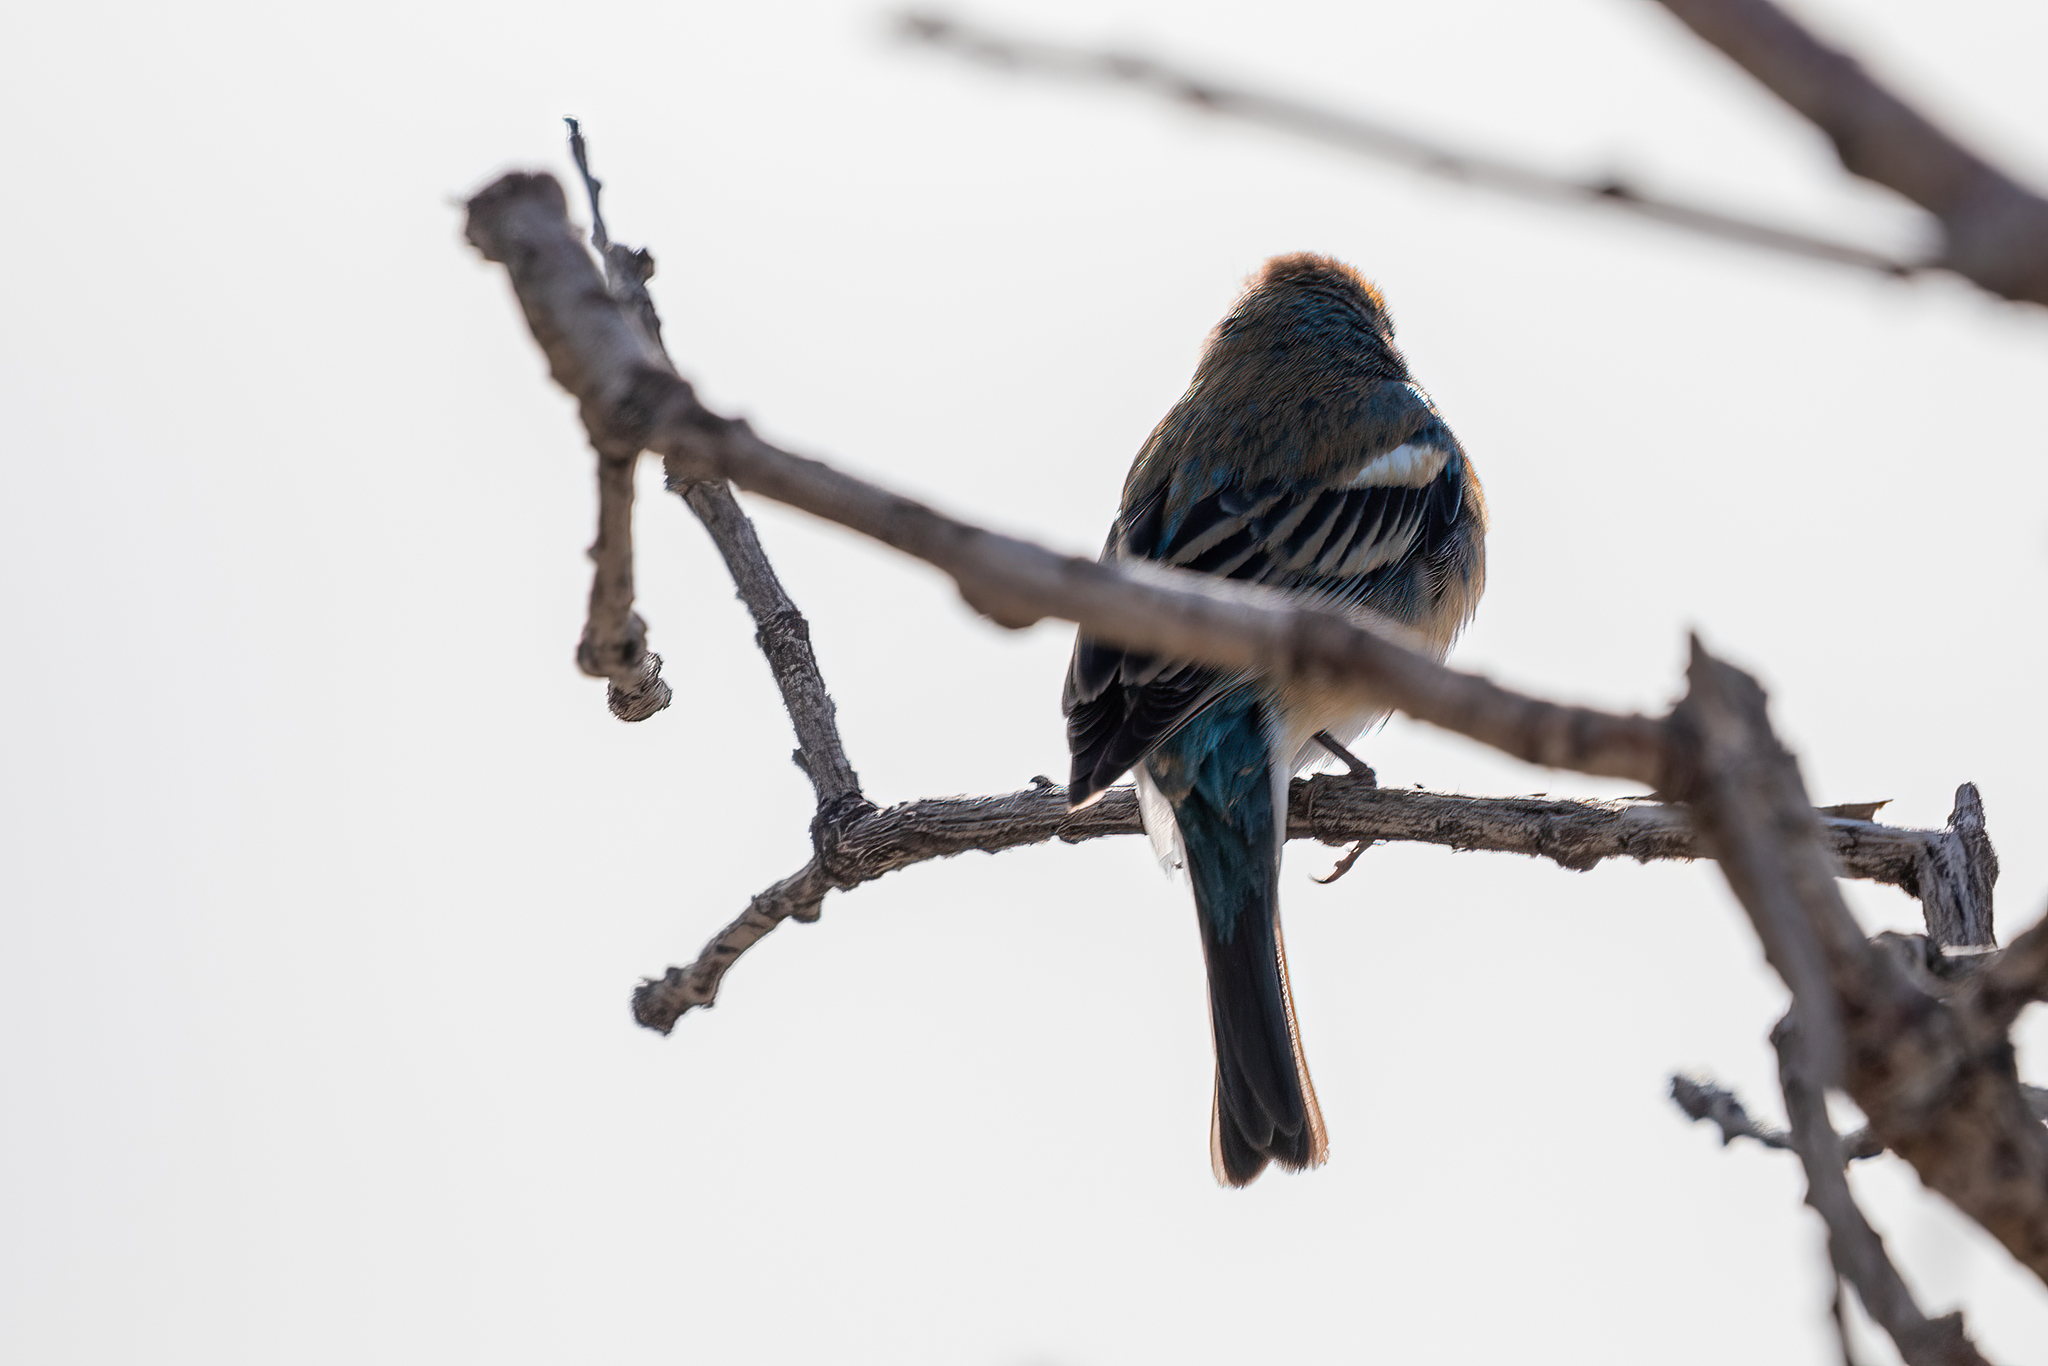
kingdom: Animalia
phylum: Chordata
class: Aves
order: Passeriformes
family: Cardinalidae
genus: Passerina
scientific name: Passerina amoena
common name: Lazuli bunting
